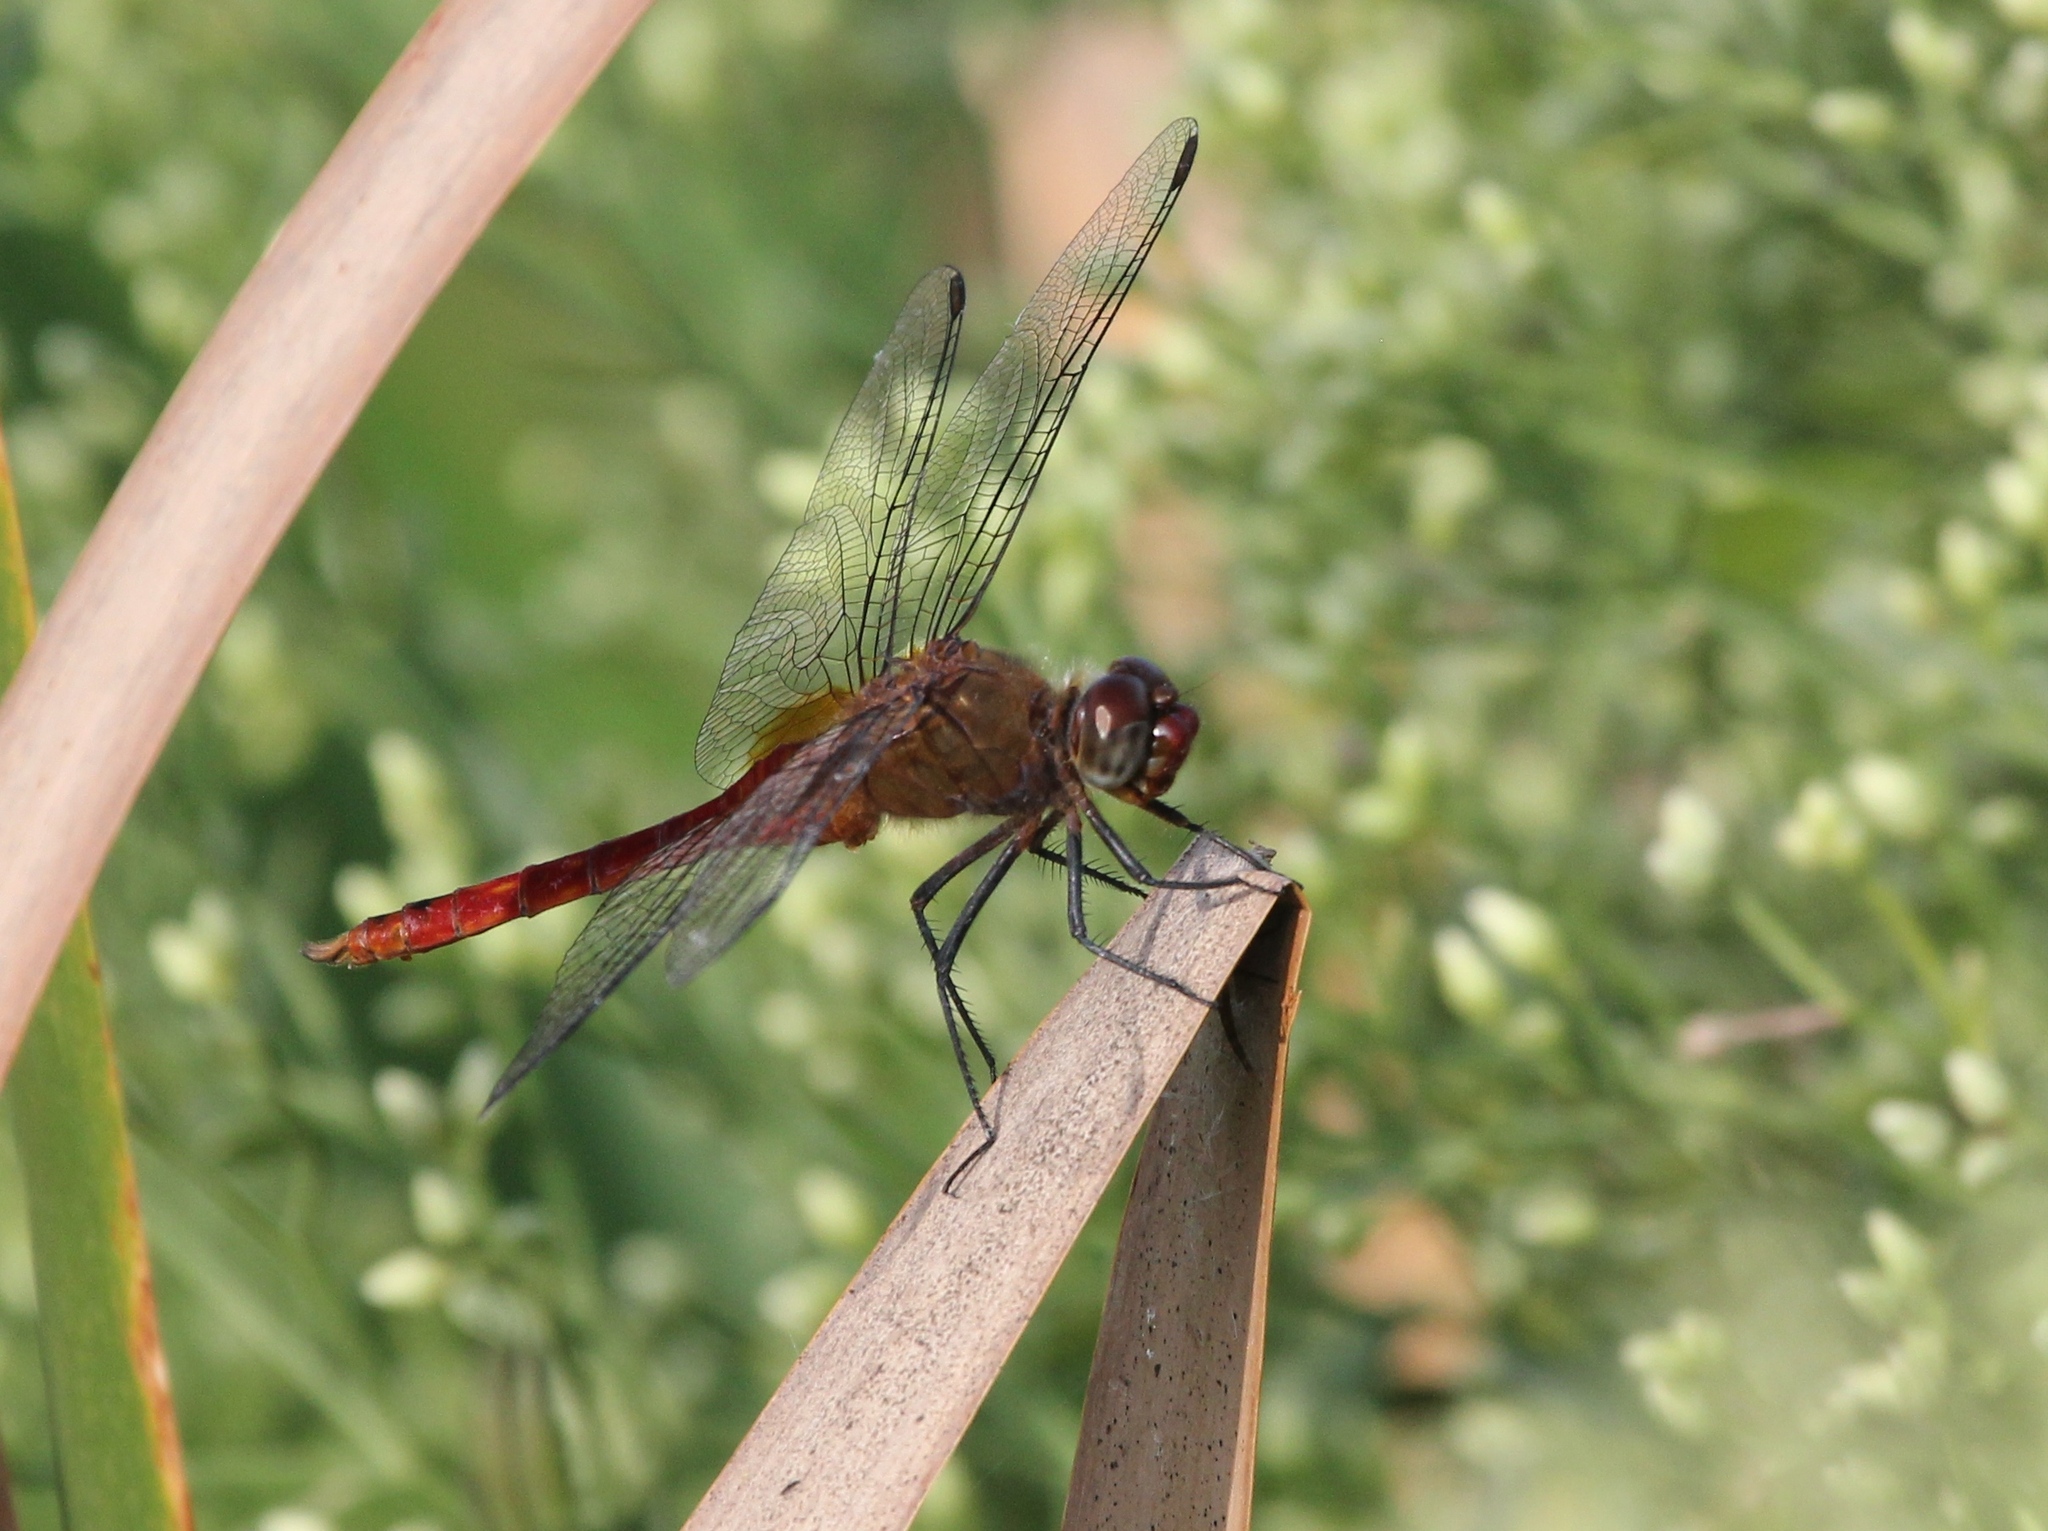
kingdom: Animalia
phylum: Arthropoda
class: Insecta
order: Odonata
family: Libellulidae
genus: Brachymesia
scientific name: Brachymesia furcata
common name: Red-taled pennant
